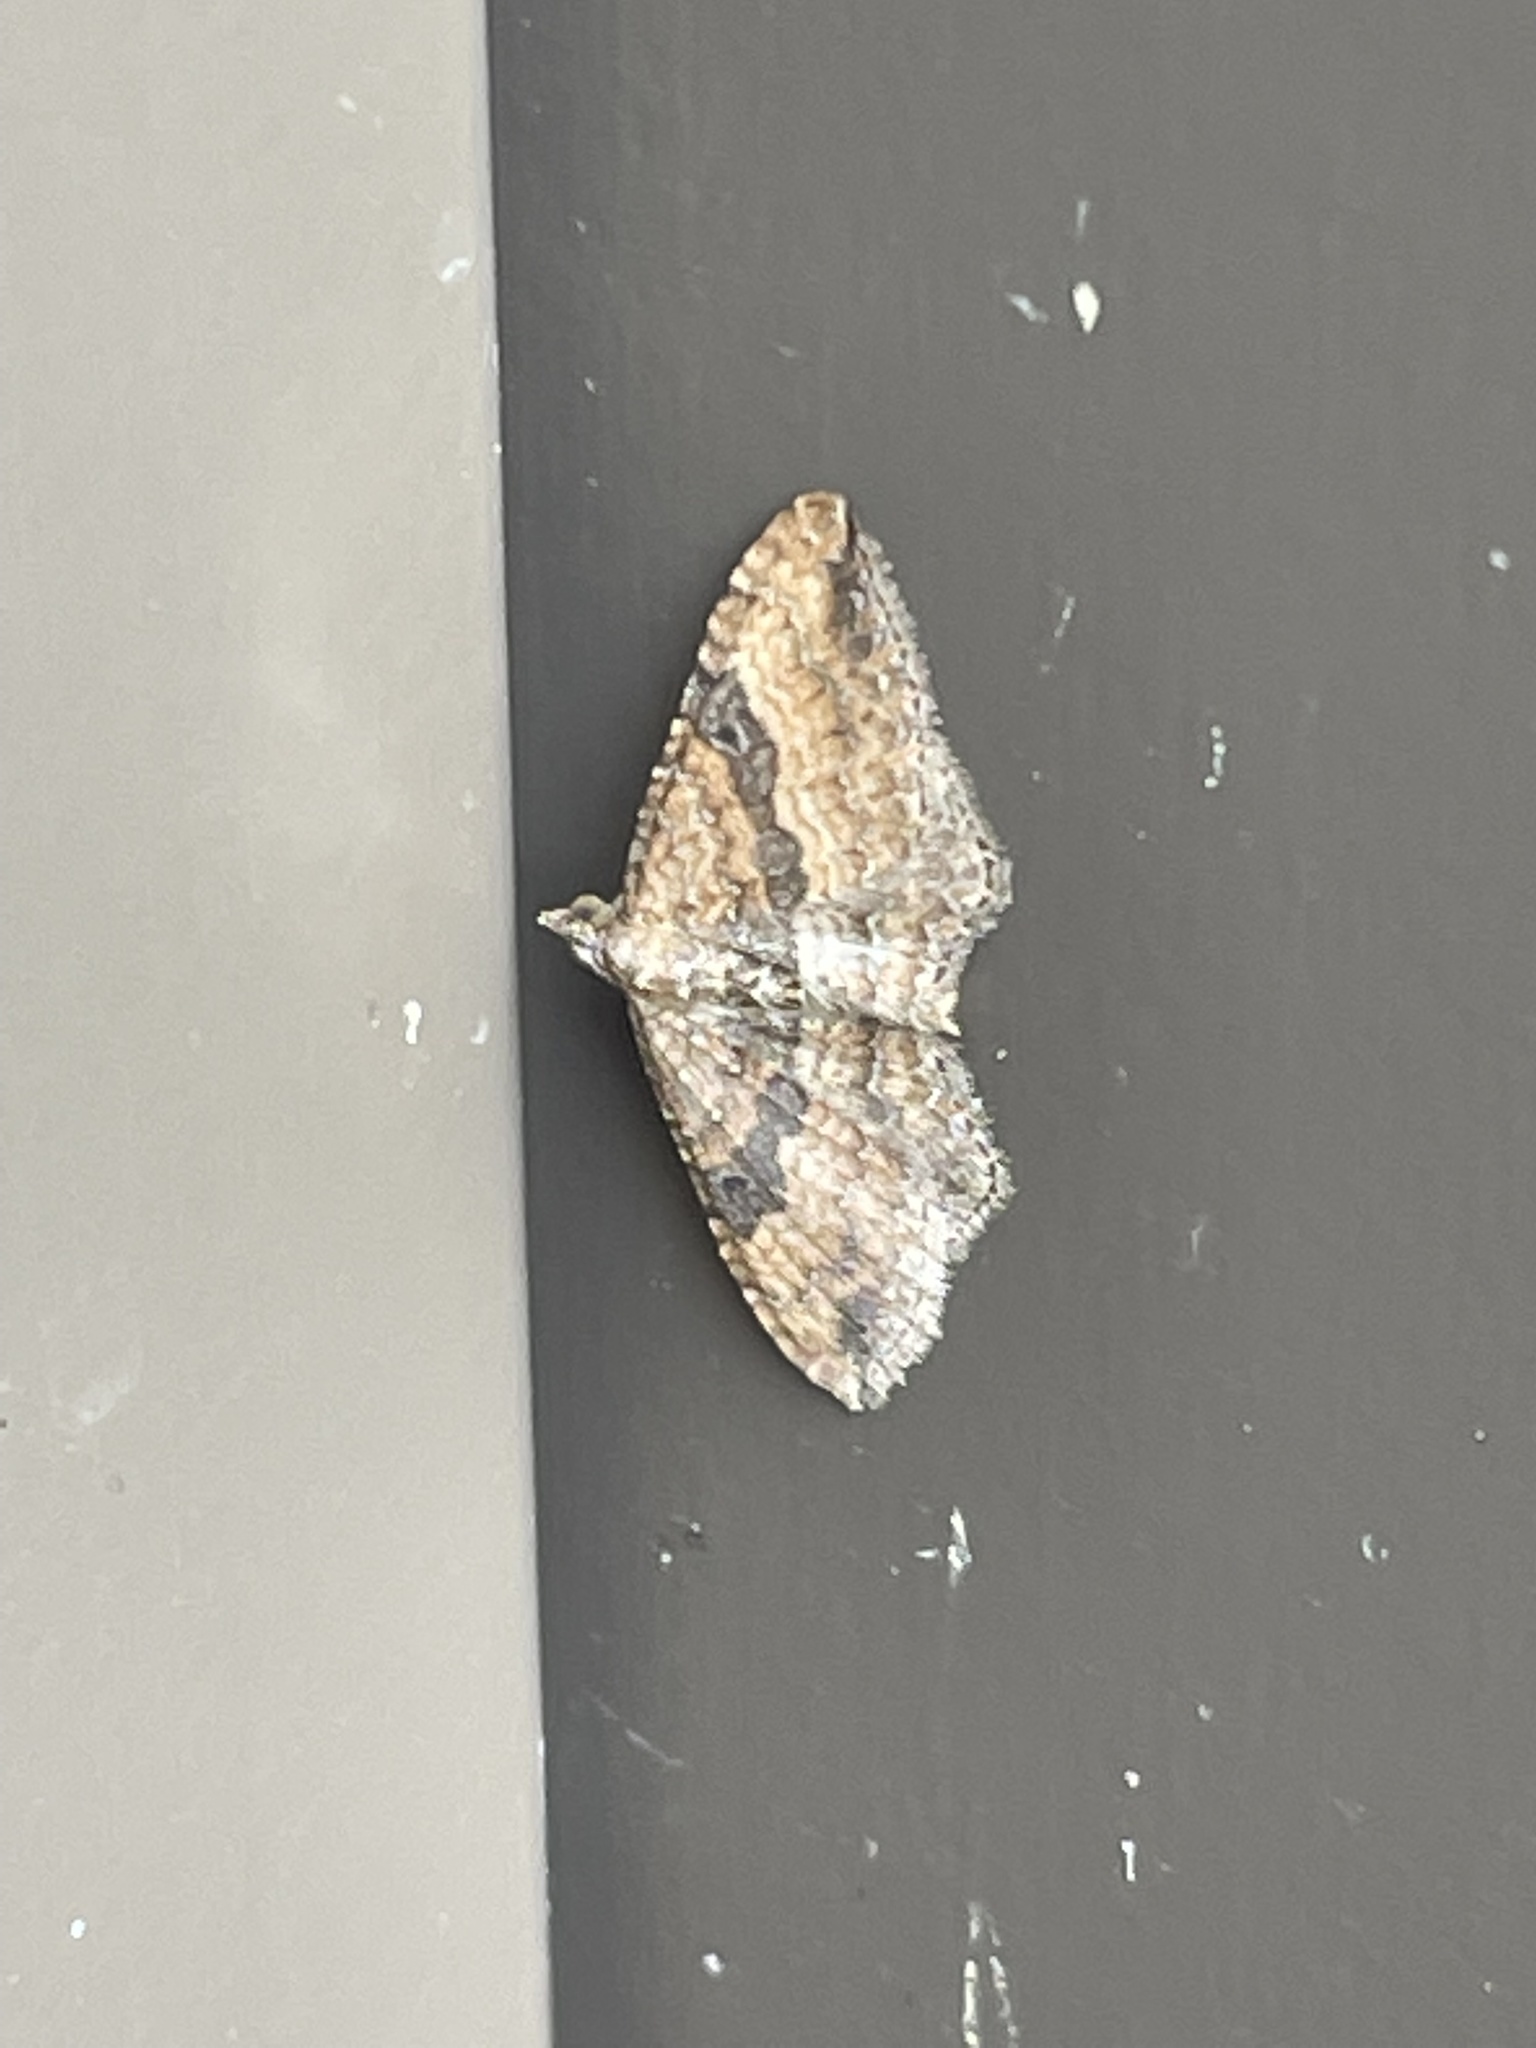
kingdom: Animalia
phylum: Arthropoda
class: Insecta
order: Lepidoptera
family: Geometridae
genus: Orthonama
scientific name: Orthonama obstipata
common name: The gem
